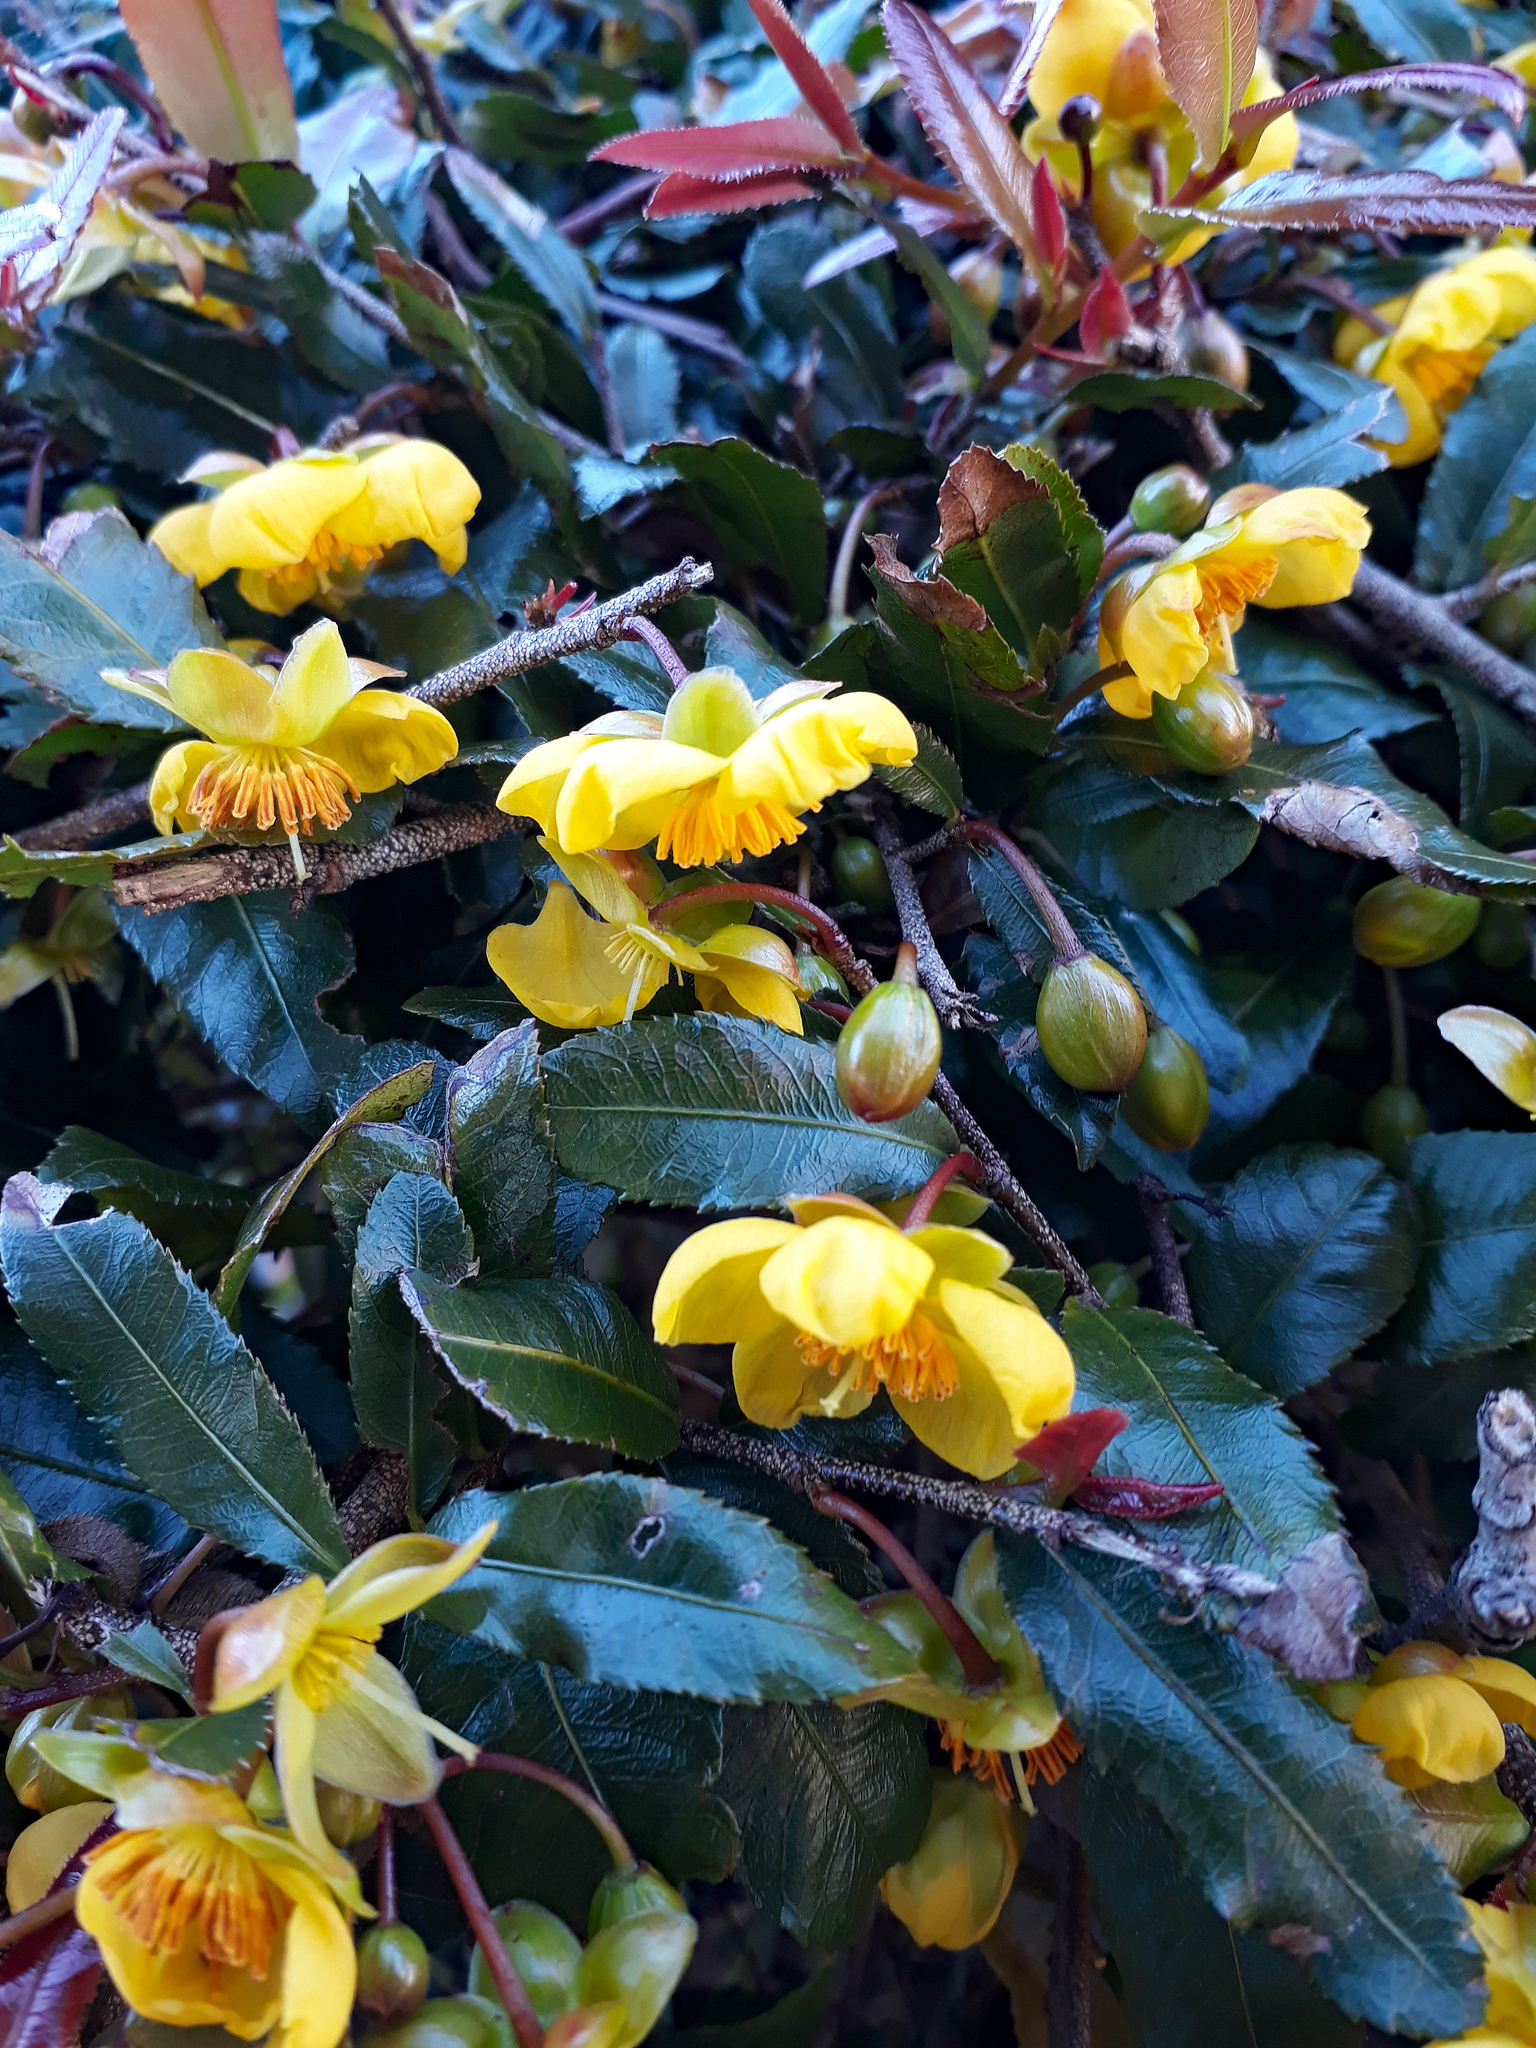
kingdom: Plantae
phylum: Tracheophyta
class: Magnoliopsida
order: Malpighiales
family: Ochnaceae
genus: Ochna
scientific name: Ochna serrulata
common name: Mickey mouse plant
